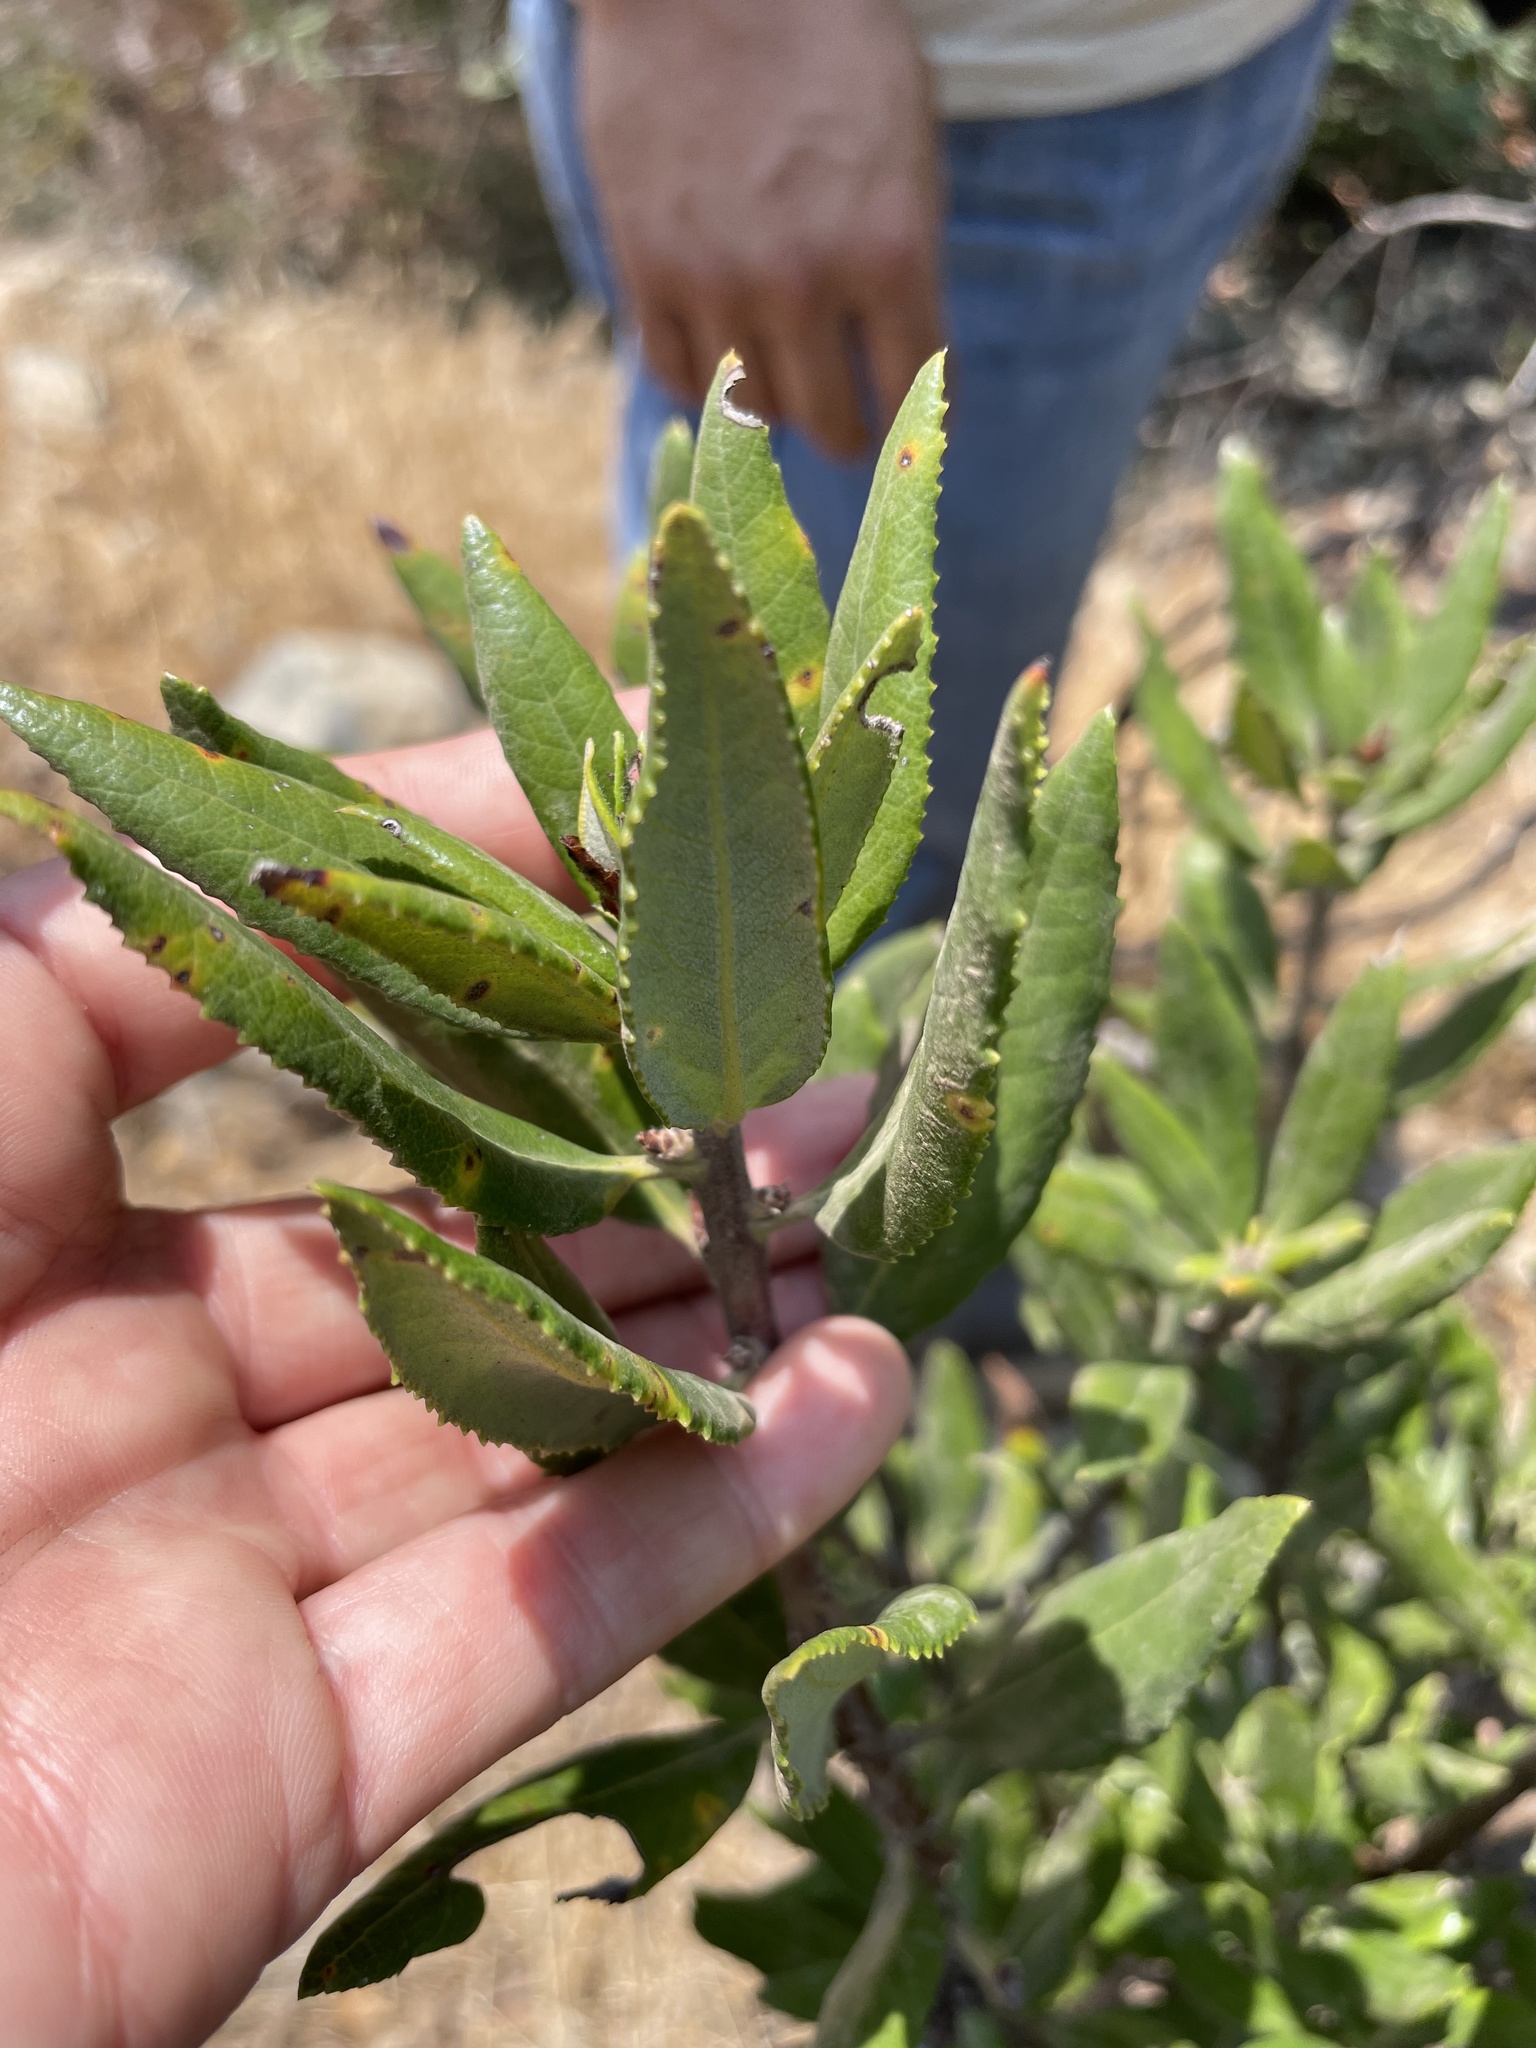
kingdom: Plantae
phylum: Tracheophyta
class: Magnoliopsida
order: Ericales
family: Ericaceae
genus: Comarostaphylis
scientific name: Comarostaphylis diversifolia
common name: Summer-holly
